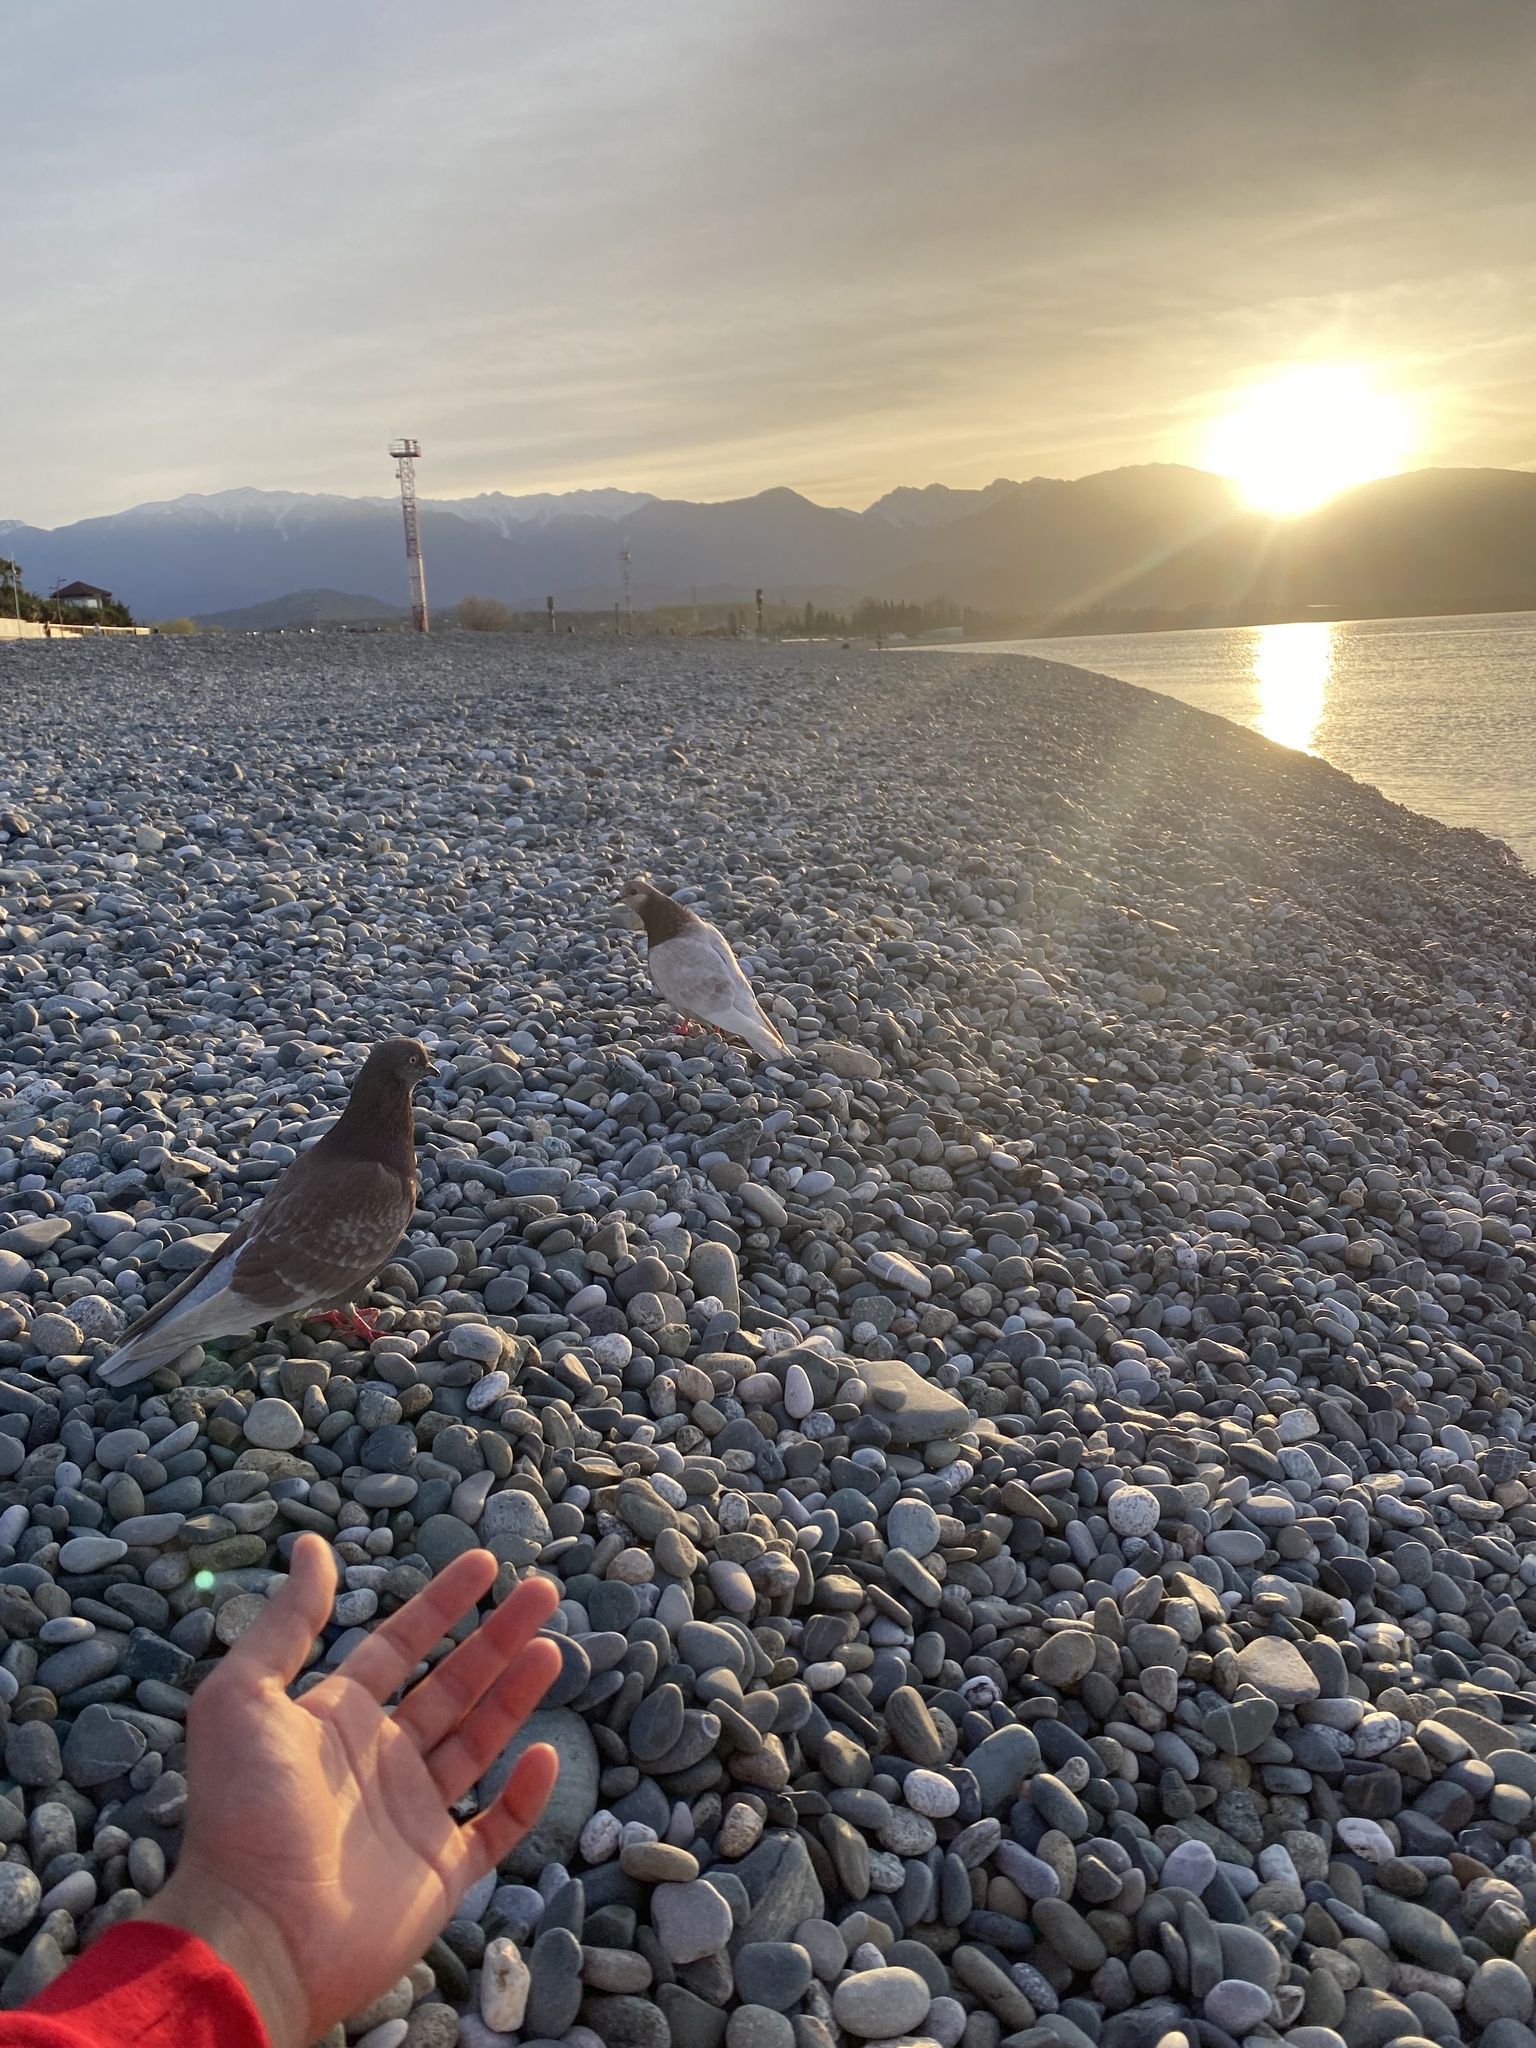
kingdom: Animalia
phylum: Chordata
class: Aves
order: Columbiformes
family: Columbidae
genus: Columba
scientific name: Columba livia
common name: Rock pigeon
